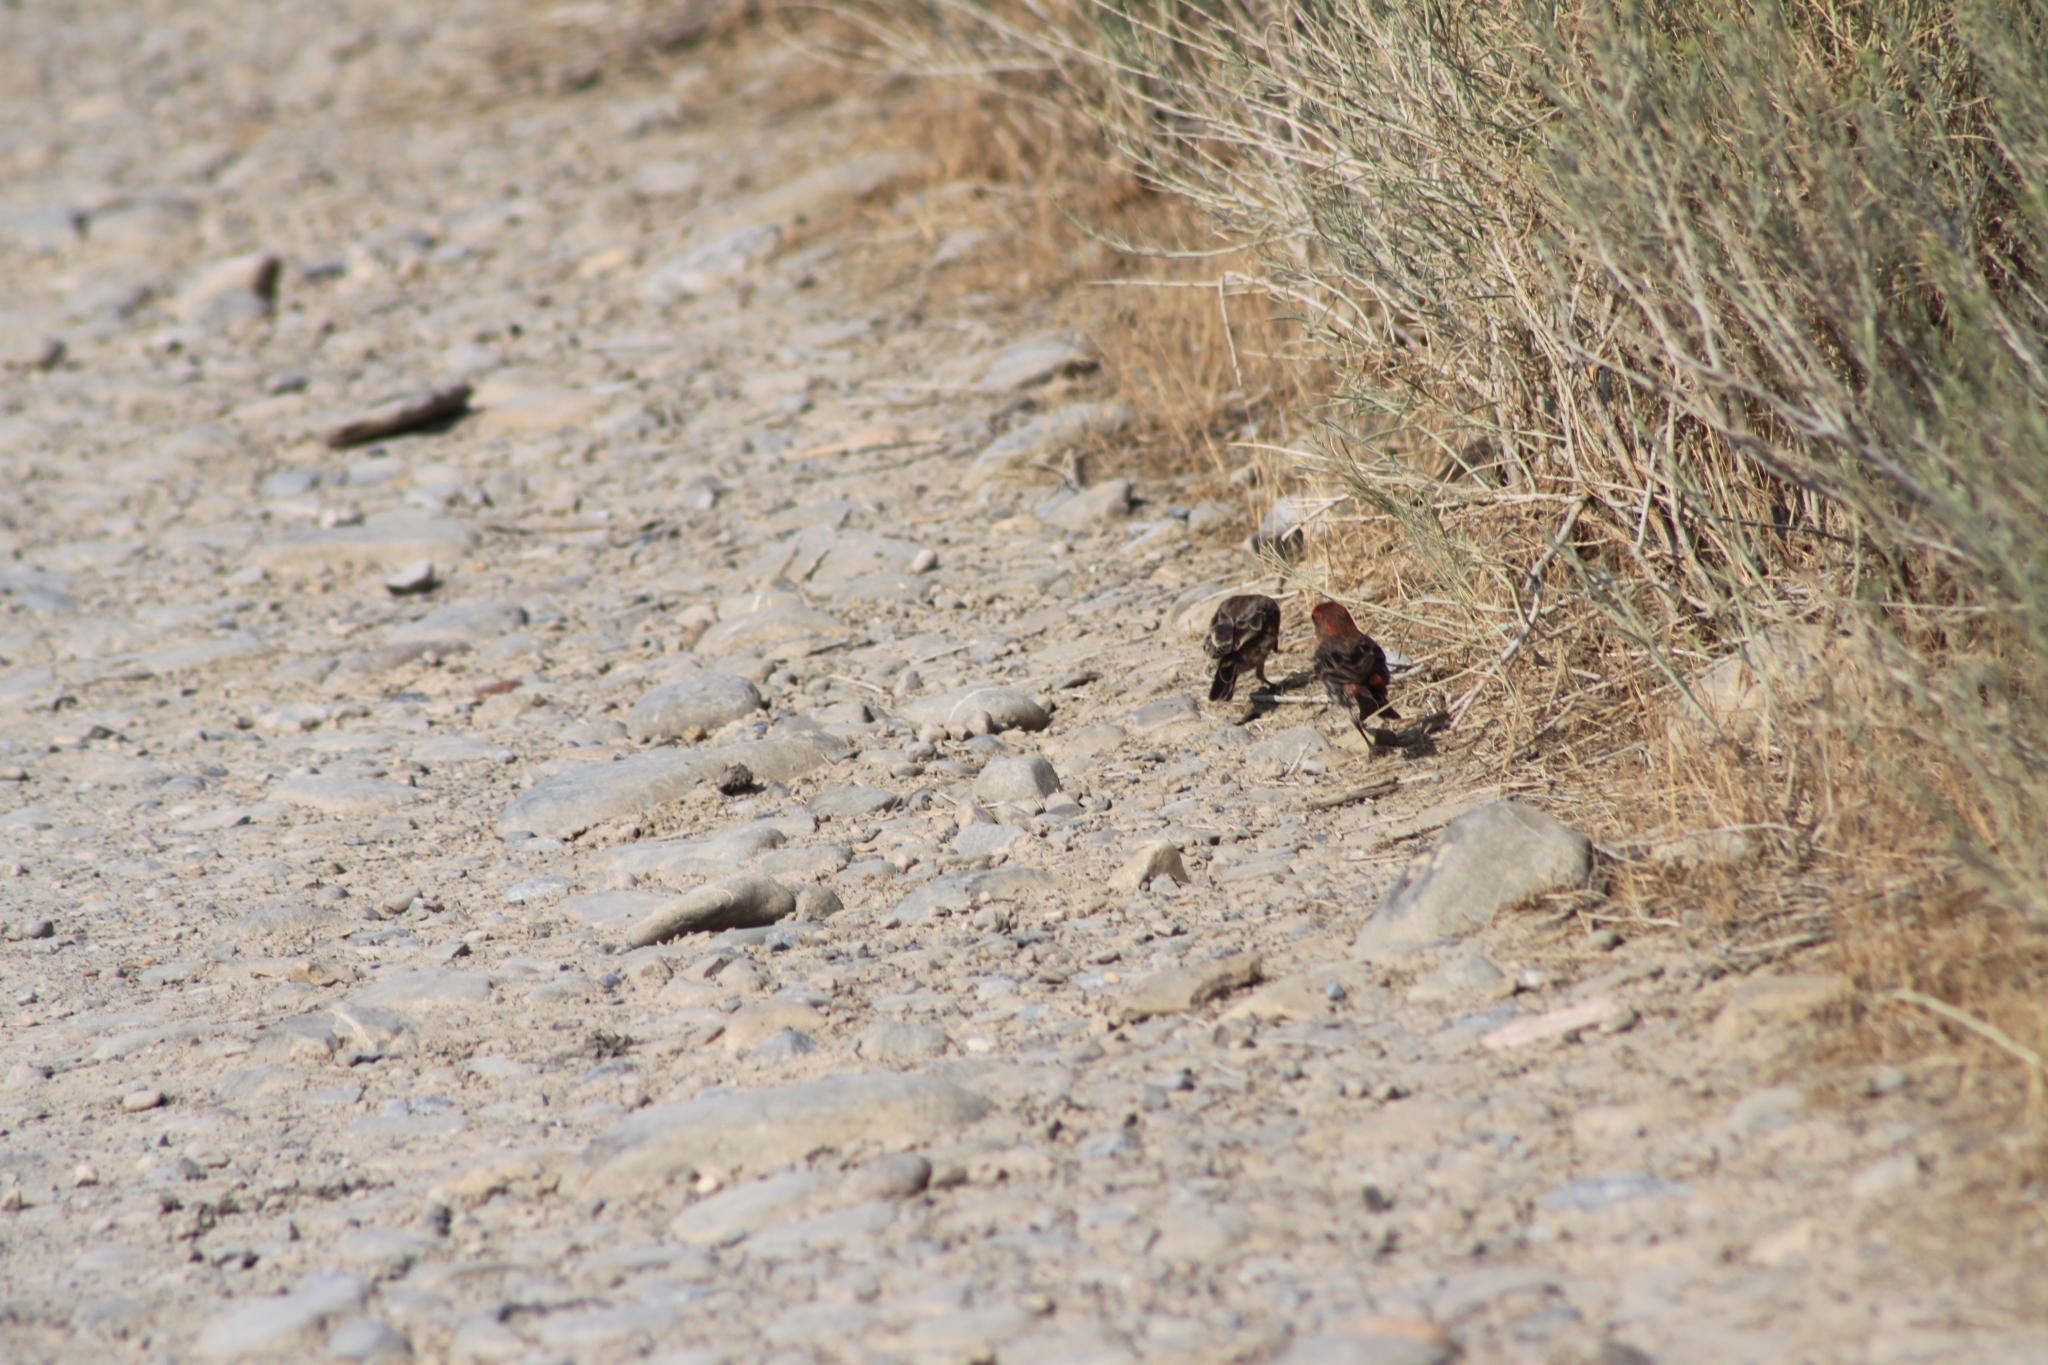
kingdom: Animalia
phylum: Chordata
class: Aves
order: Passeriformes
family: Fringillidae
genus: Haemorhous
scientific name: Haemorhous mexicanus
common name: House finch
